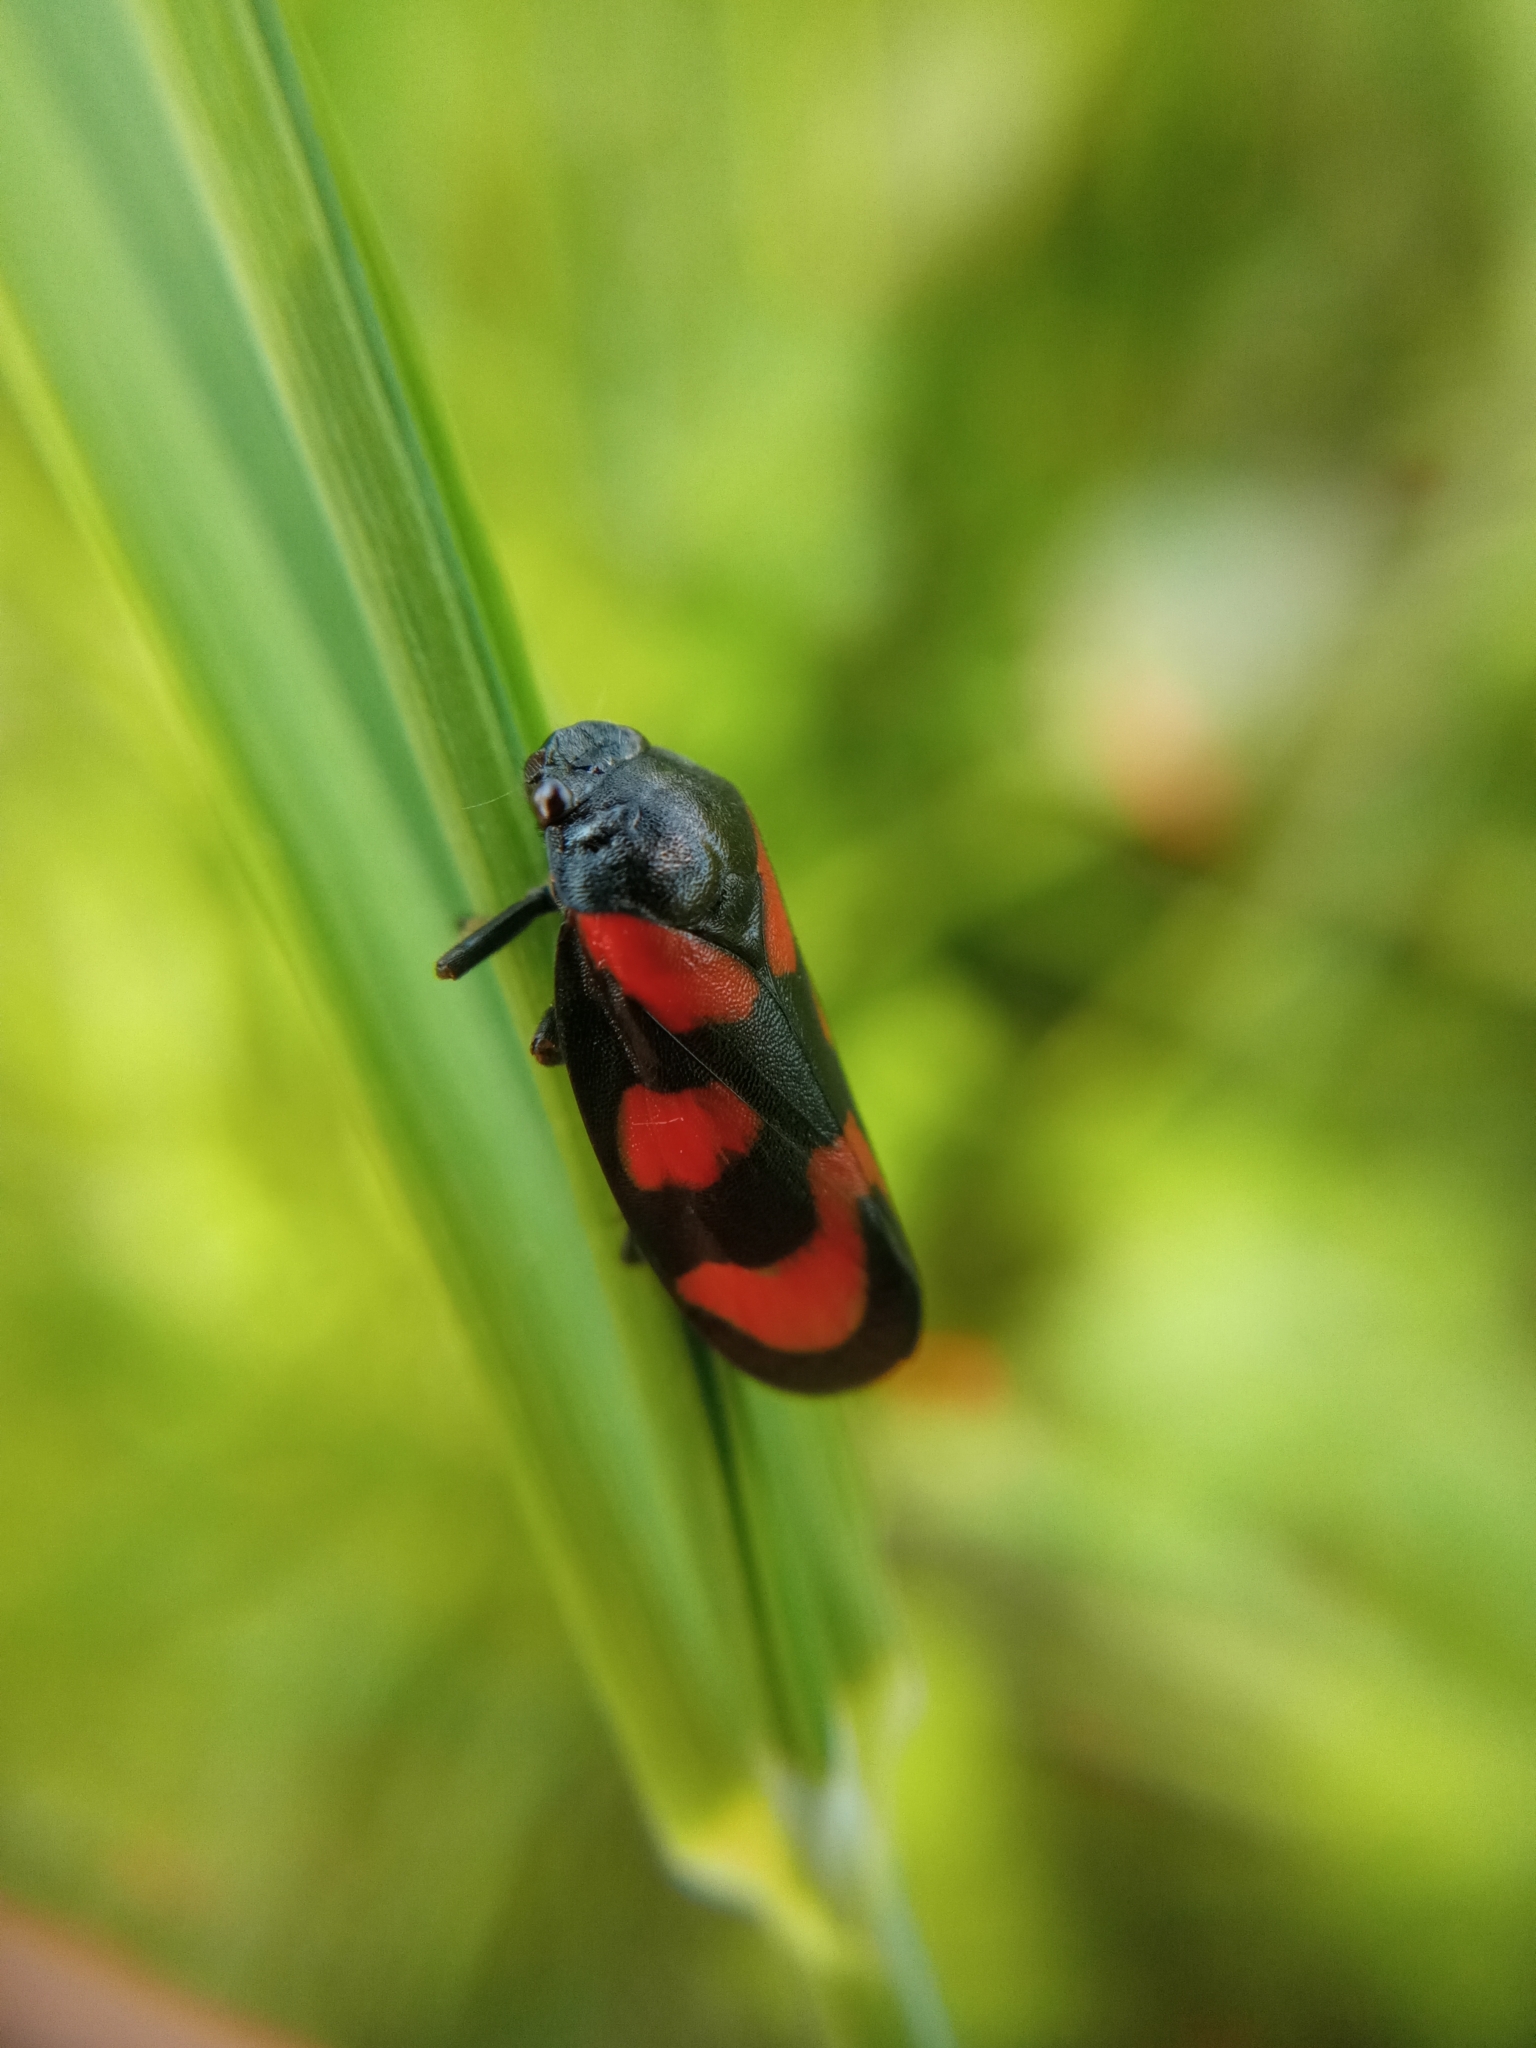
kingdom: Animalia
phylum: Arthropoda
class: Insecta
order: Hemiptera
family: Cercopidae
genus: Cercopis
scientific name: Cercopis vulnerata
